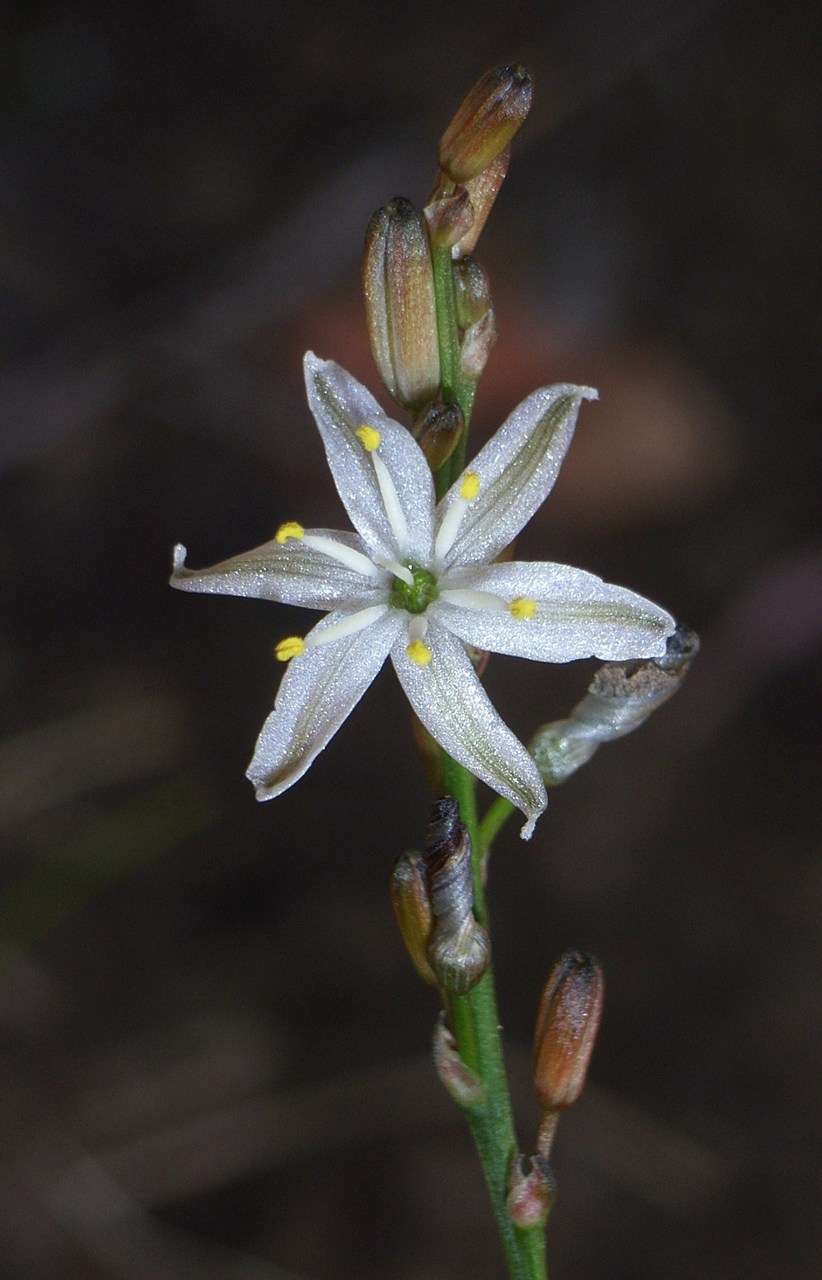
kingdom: Plantae
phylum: Tracheophyta
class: Liliopsida
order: Asparagales
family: Asphodelaceae
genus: Caesia
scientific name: Caesia parviflora
